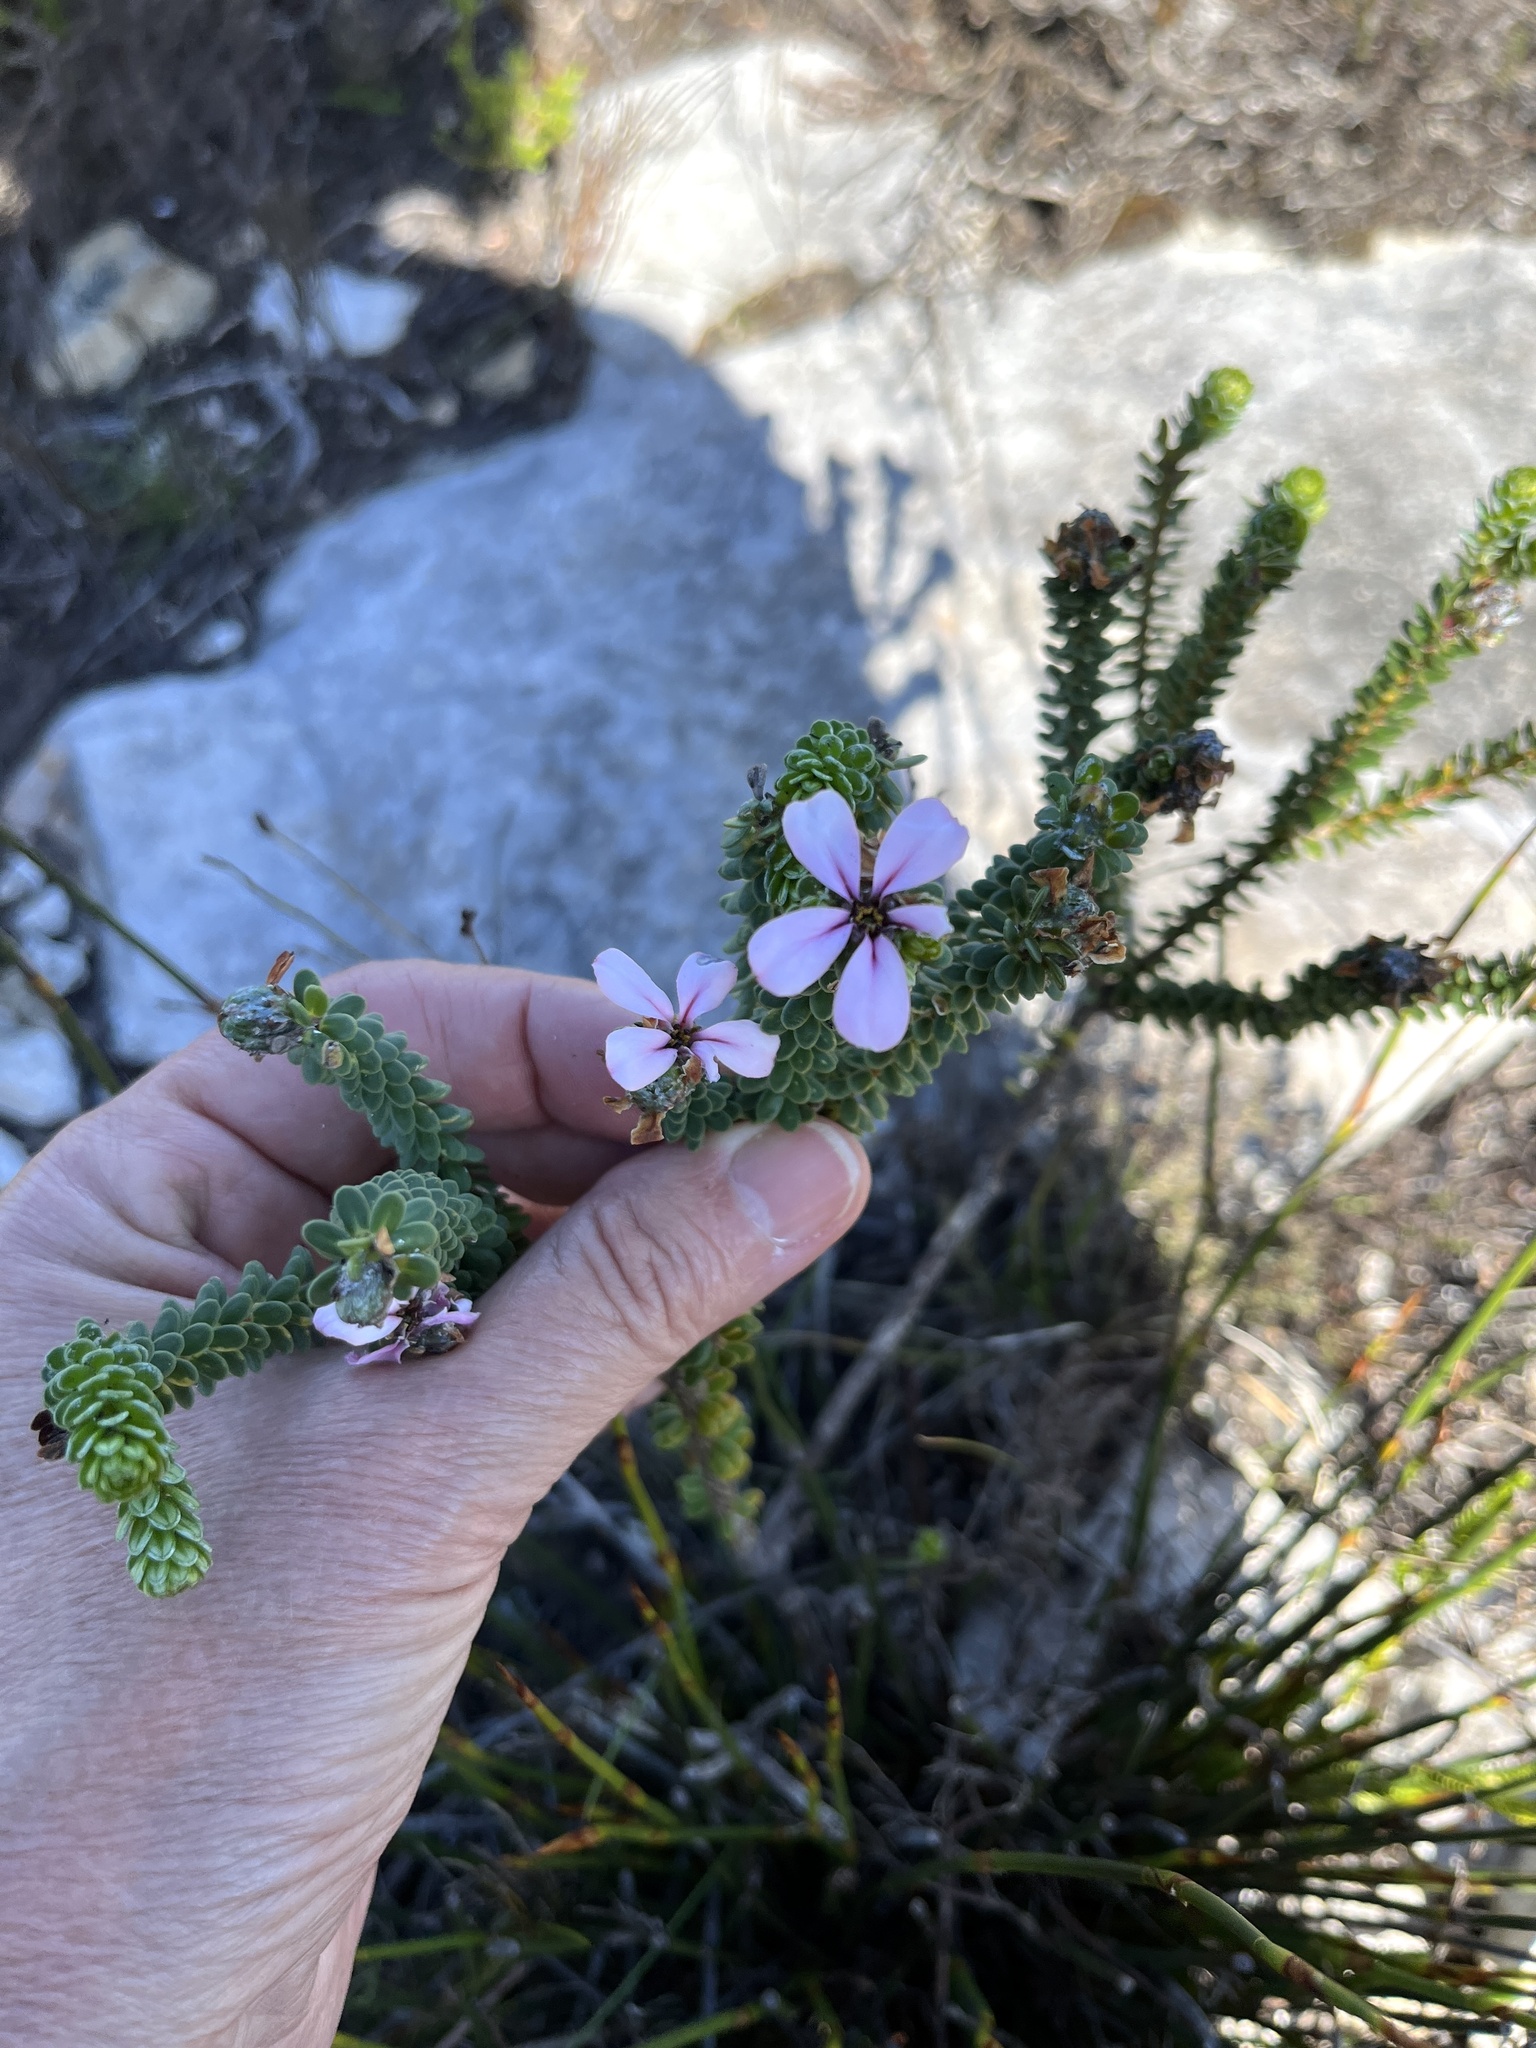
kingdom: Plantae
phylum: Tracheophyta
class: Magnoliopsida
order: Sapindales
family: Rutaceae
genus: Adenandra
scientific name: Adenandra obtusata
